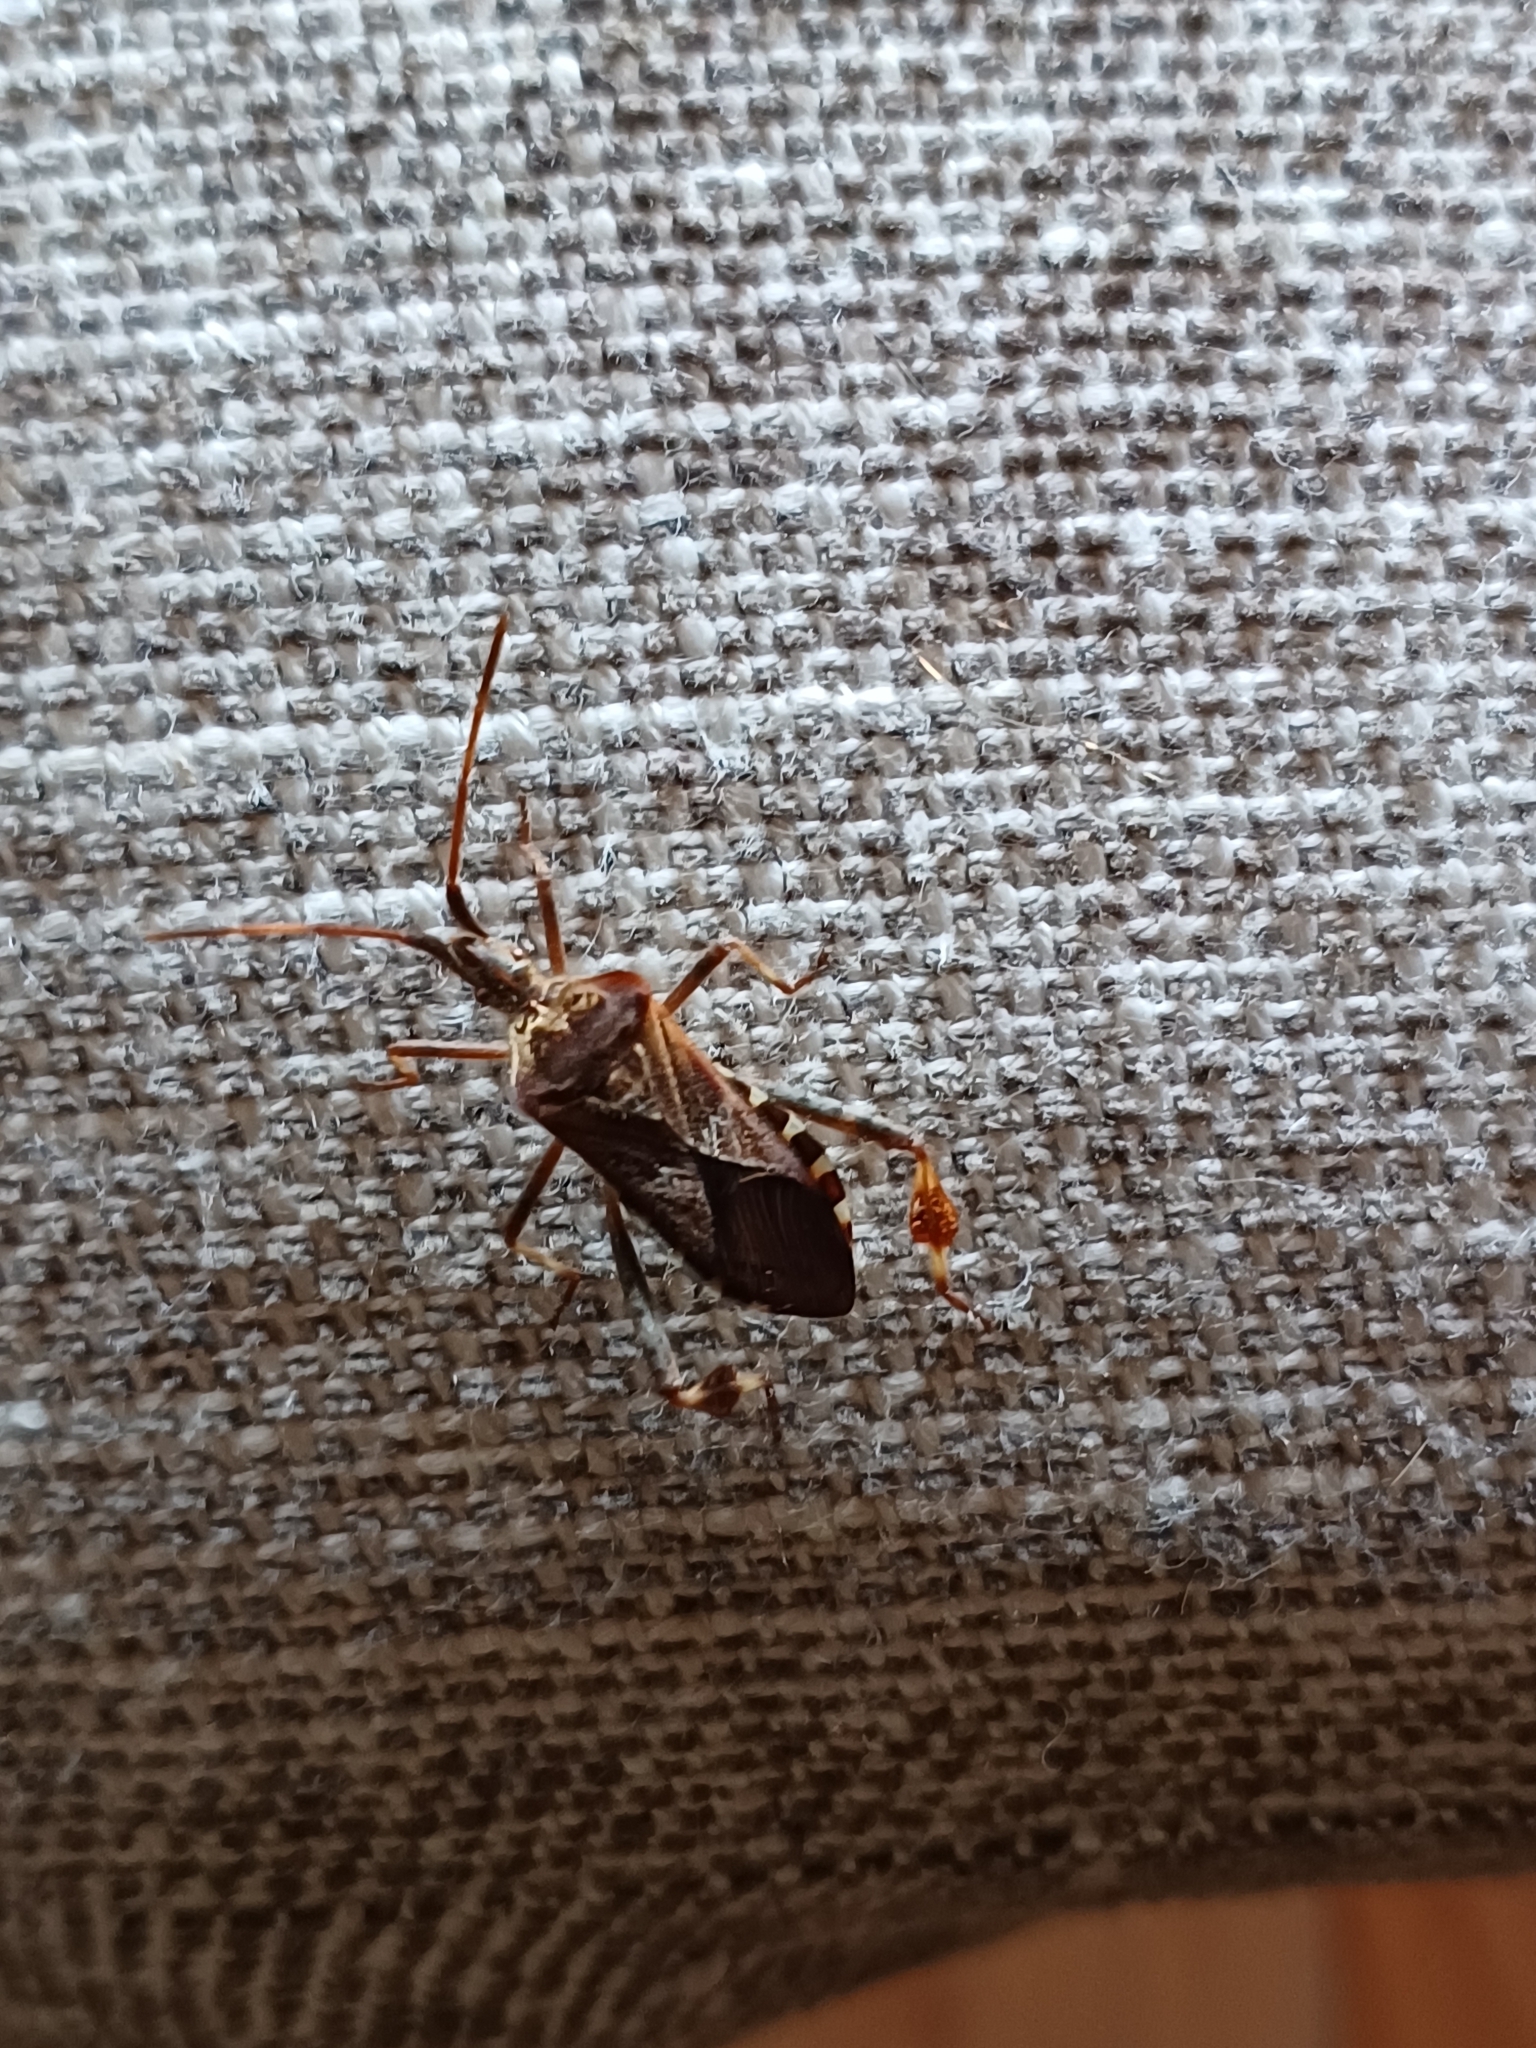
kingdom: Animalia
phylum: Arthropoda
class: Insecta
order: Hemiptera
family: Coreidae
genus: Leptoglossus
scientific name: Leptoglossus occidentalis
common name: Western conifer-seed bug
